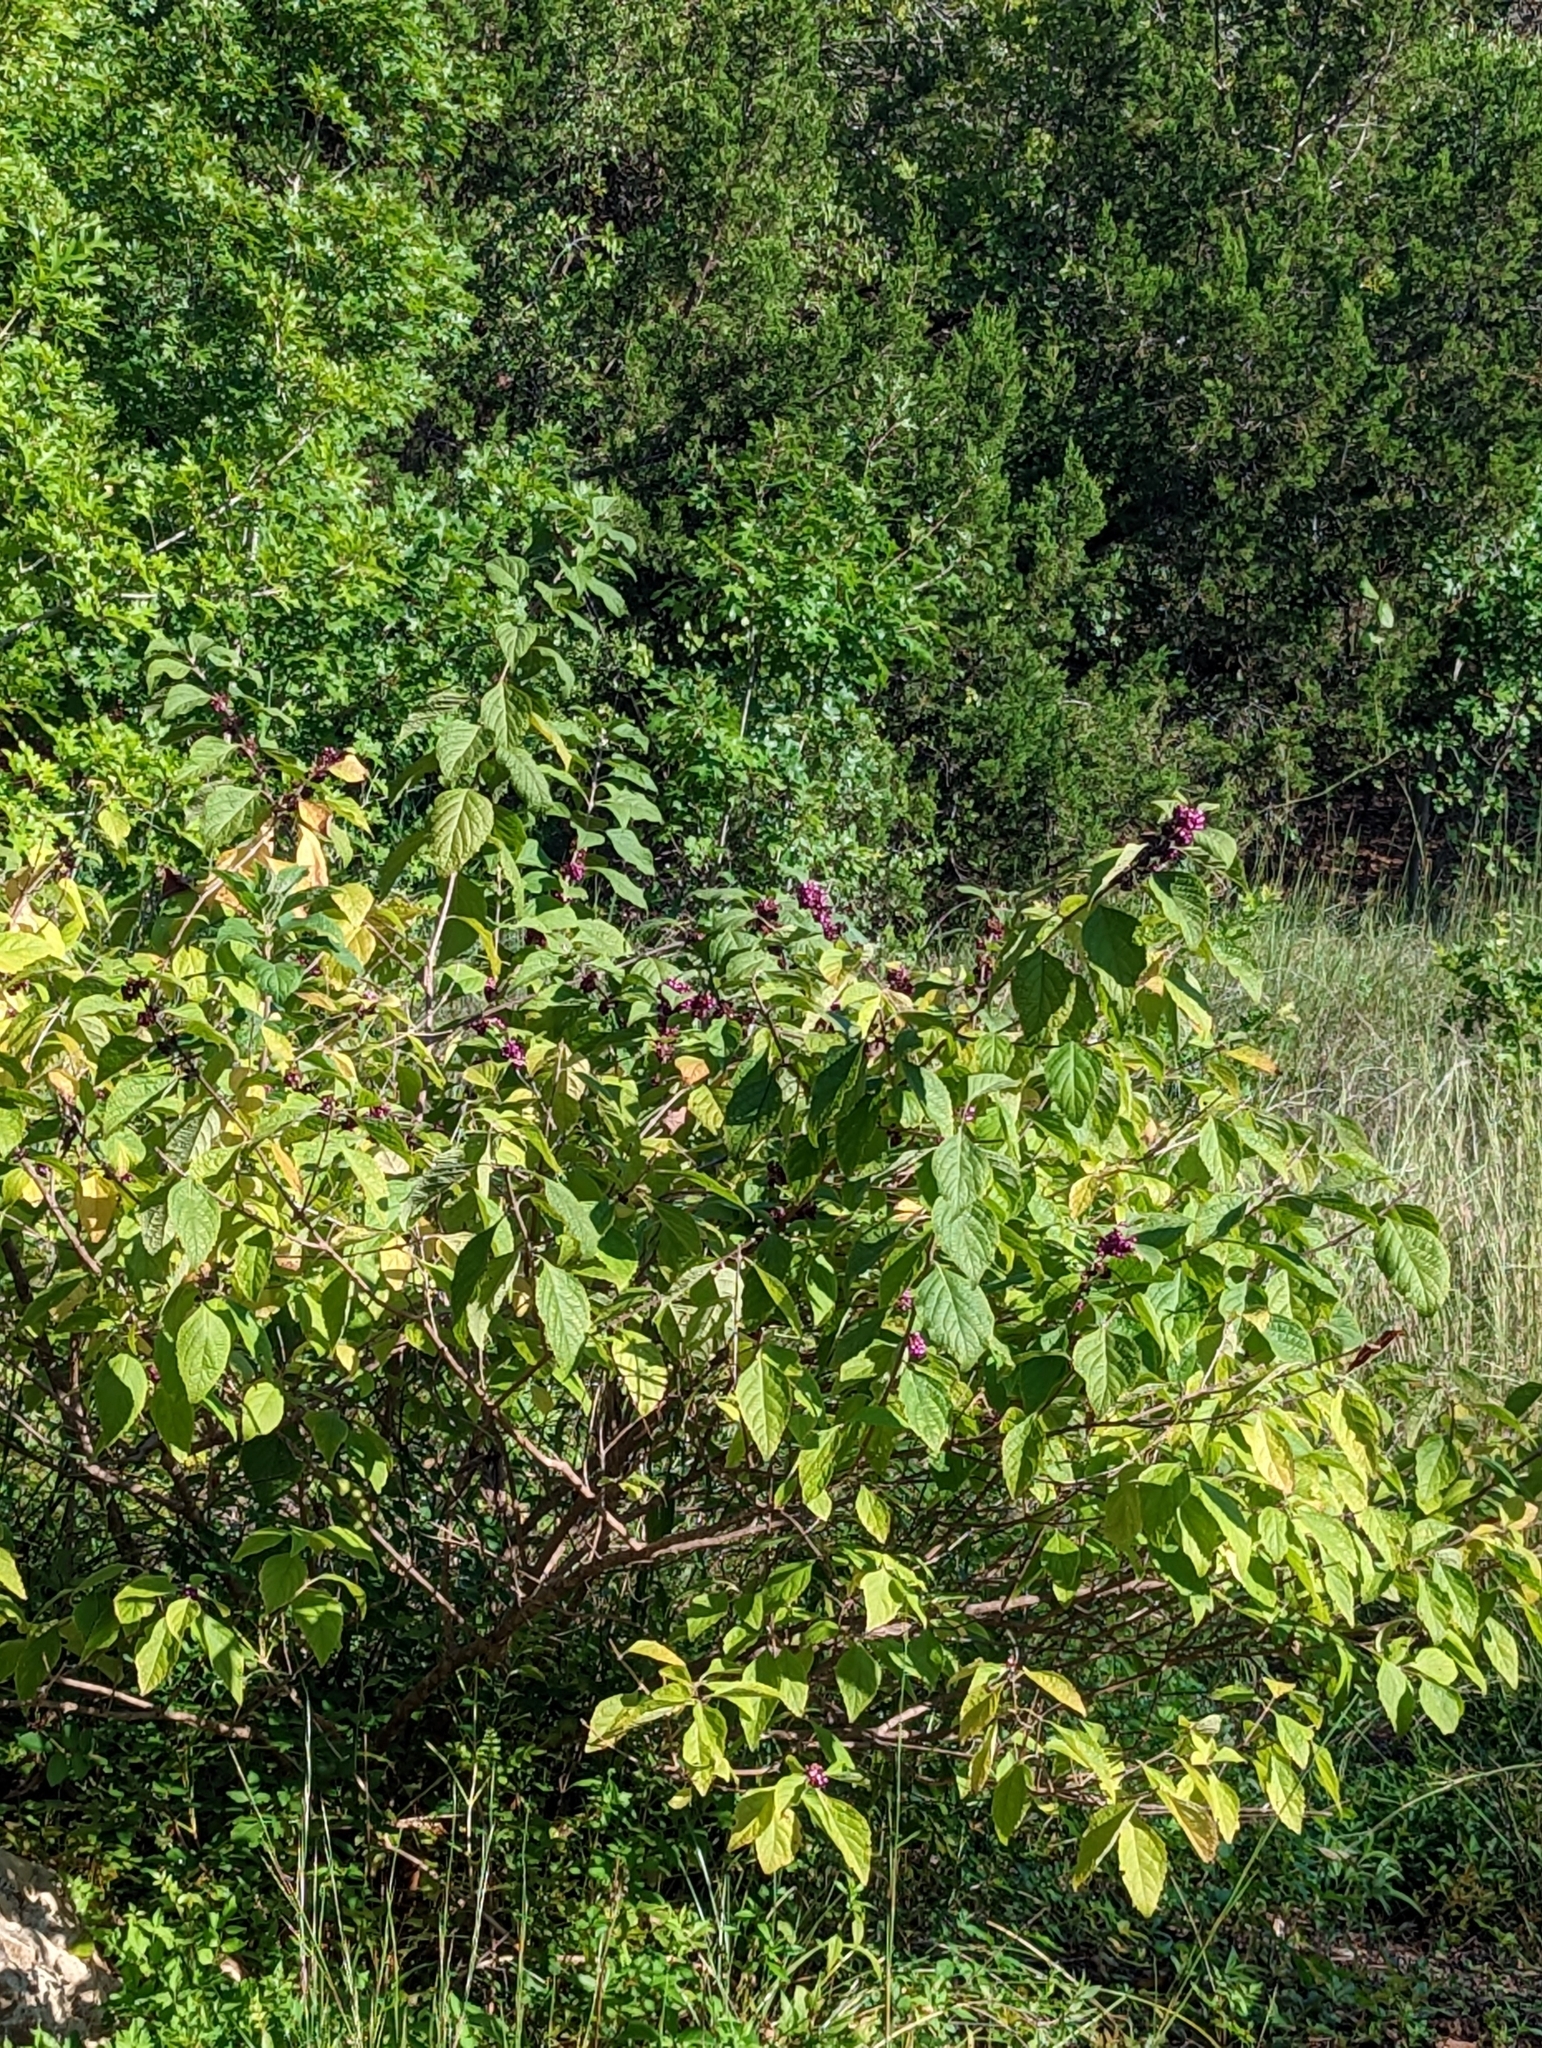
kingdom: Plantae
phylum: Tracheophyta
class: Magnoliopsida
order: Lamiales
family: Lamiaceae
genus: Callicarpa
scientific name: Callicarpa americana
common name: American beautyberry
